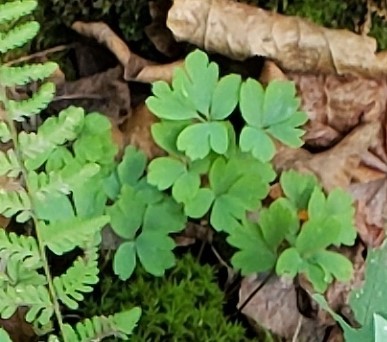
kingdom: Plantae
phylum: Tracheophyta
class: Magnoliopsida
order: Ranunculales
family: Ranunculaceae
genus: Enemion
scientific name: Enemion biternatum
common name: Eastern false rue-anemone
